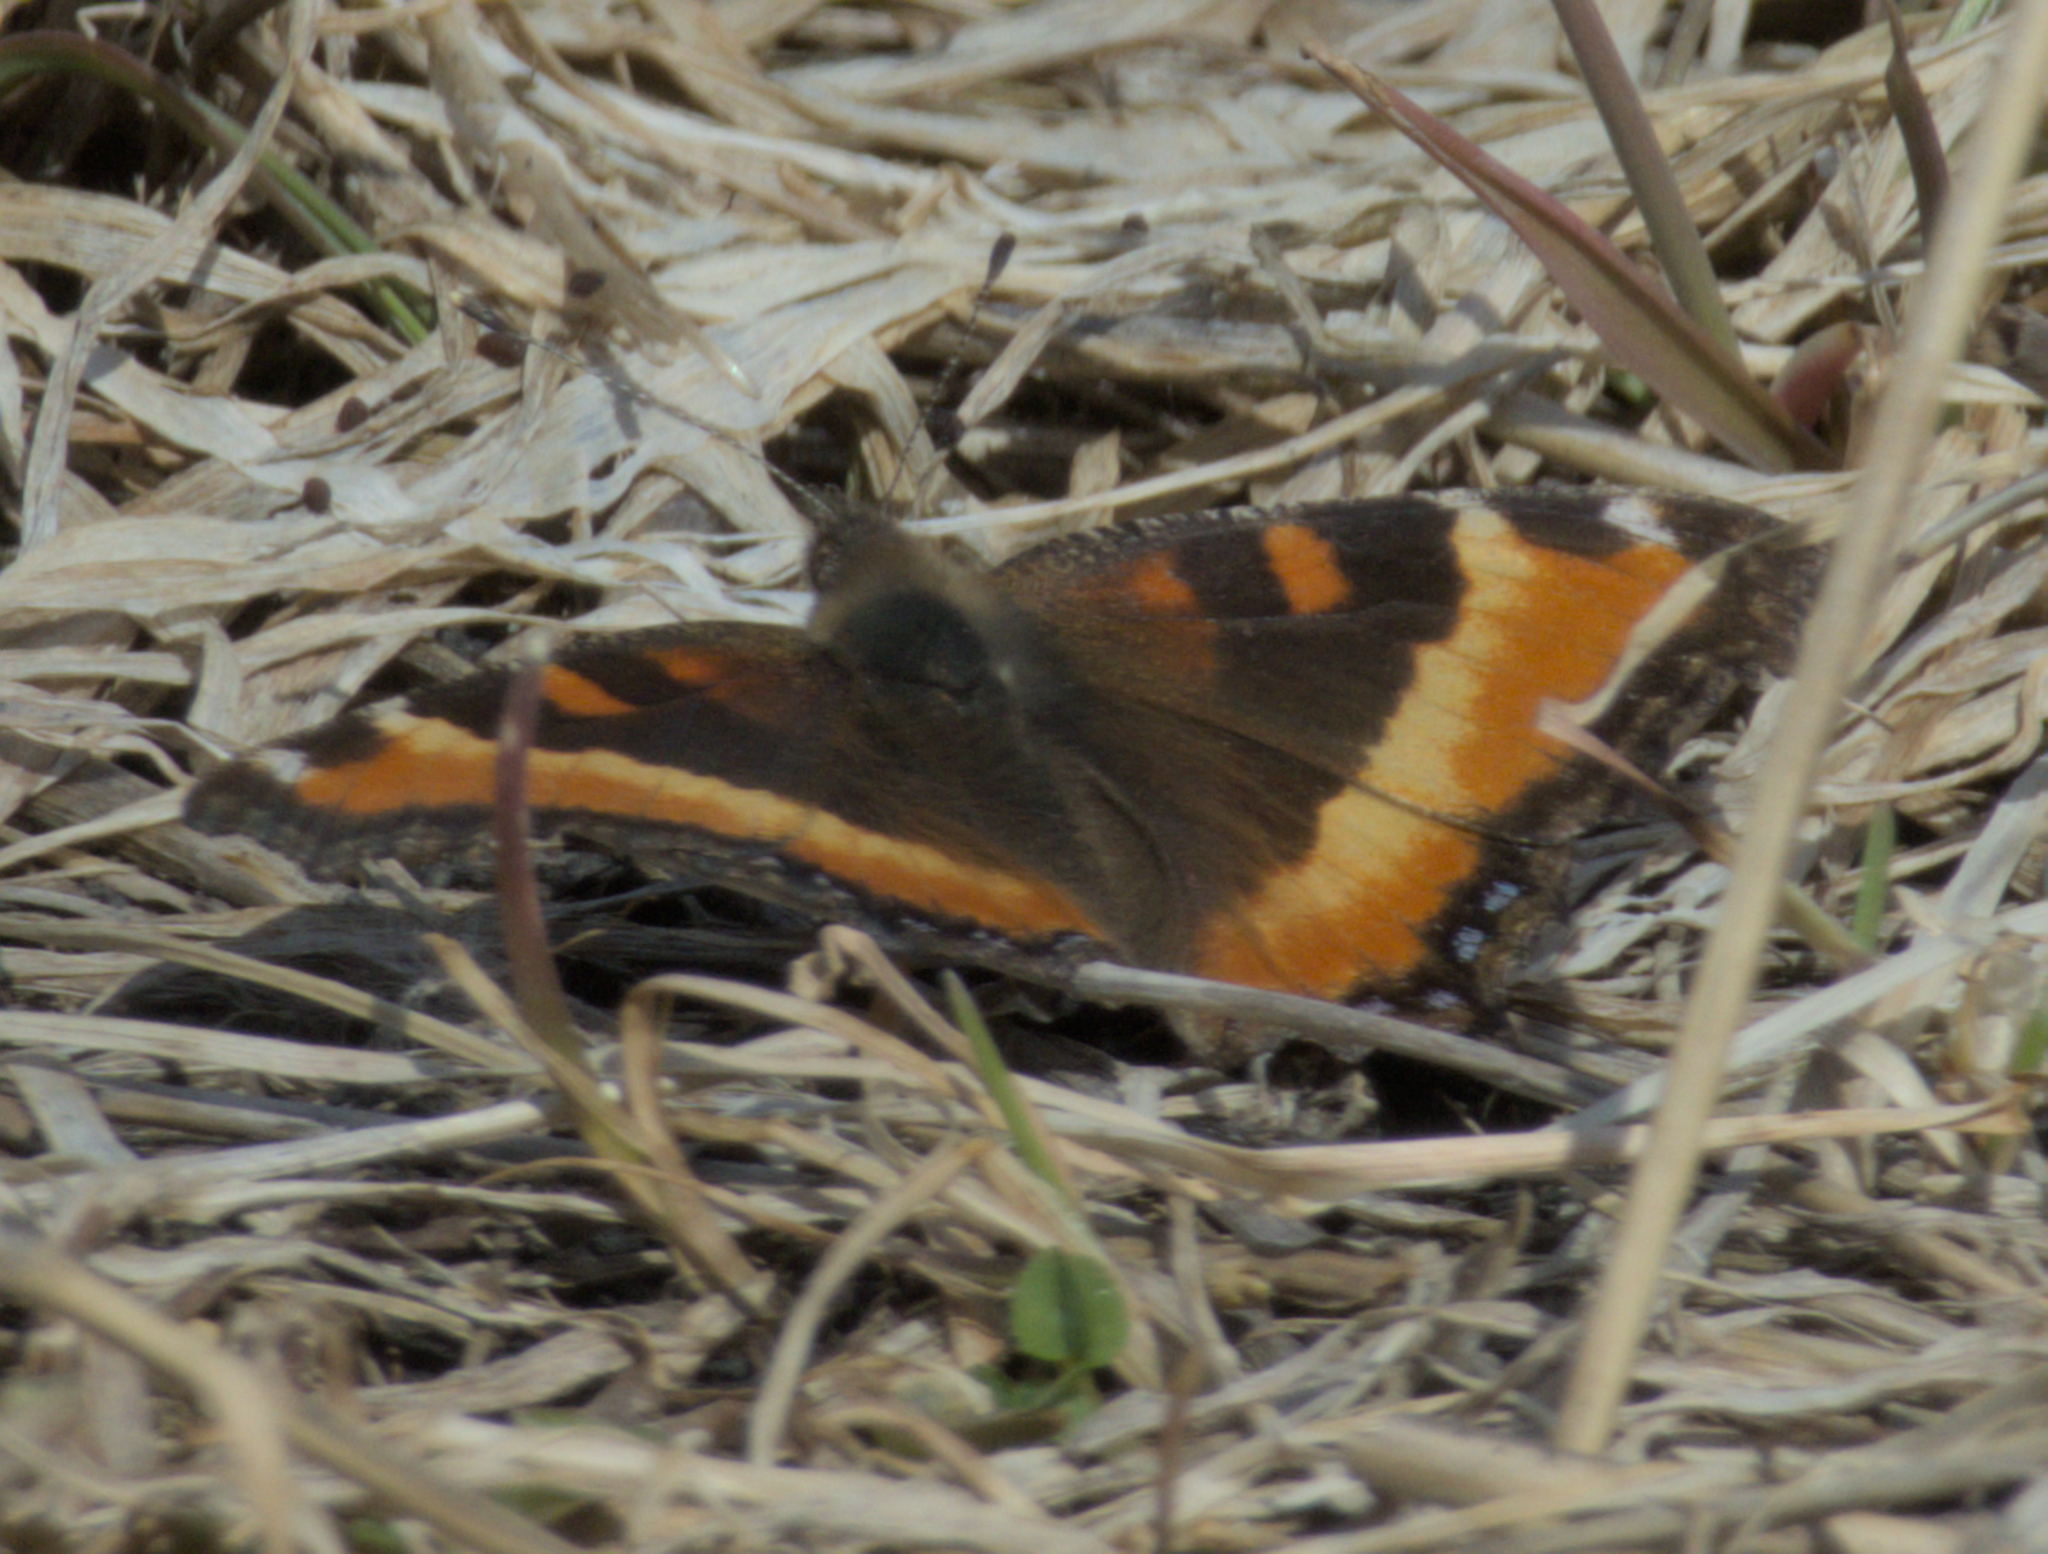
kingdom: Animalia
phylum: Arthropoda
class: Insecta
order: Lepidoptera
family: Nymphalidae
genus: Aglais
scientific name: Aglais milberti
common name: Milbert's tortoiseshell
